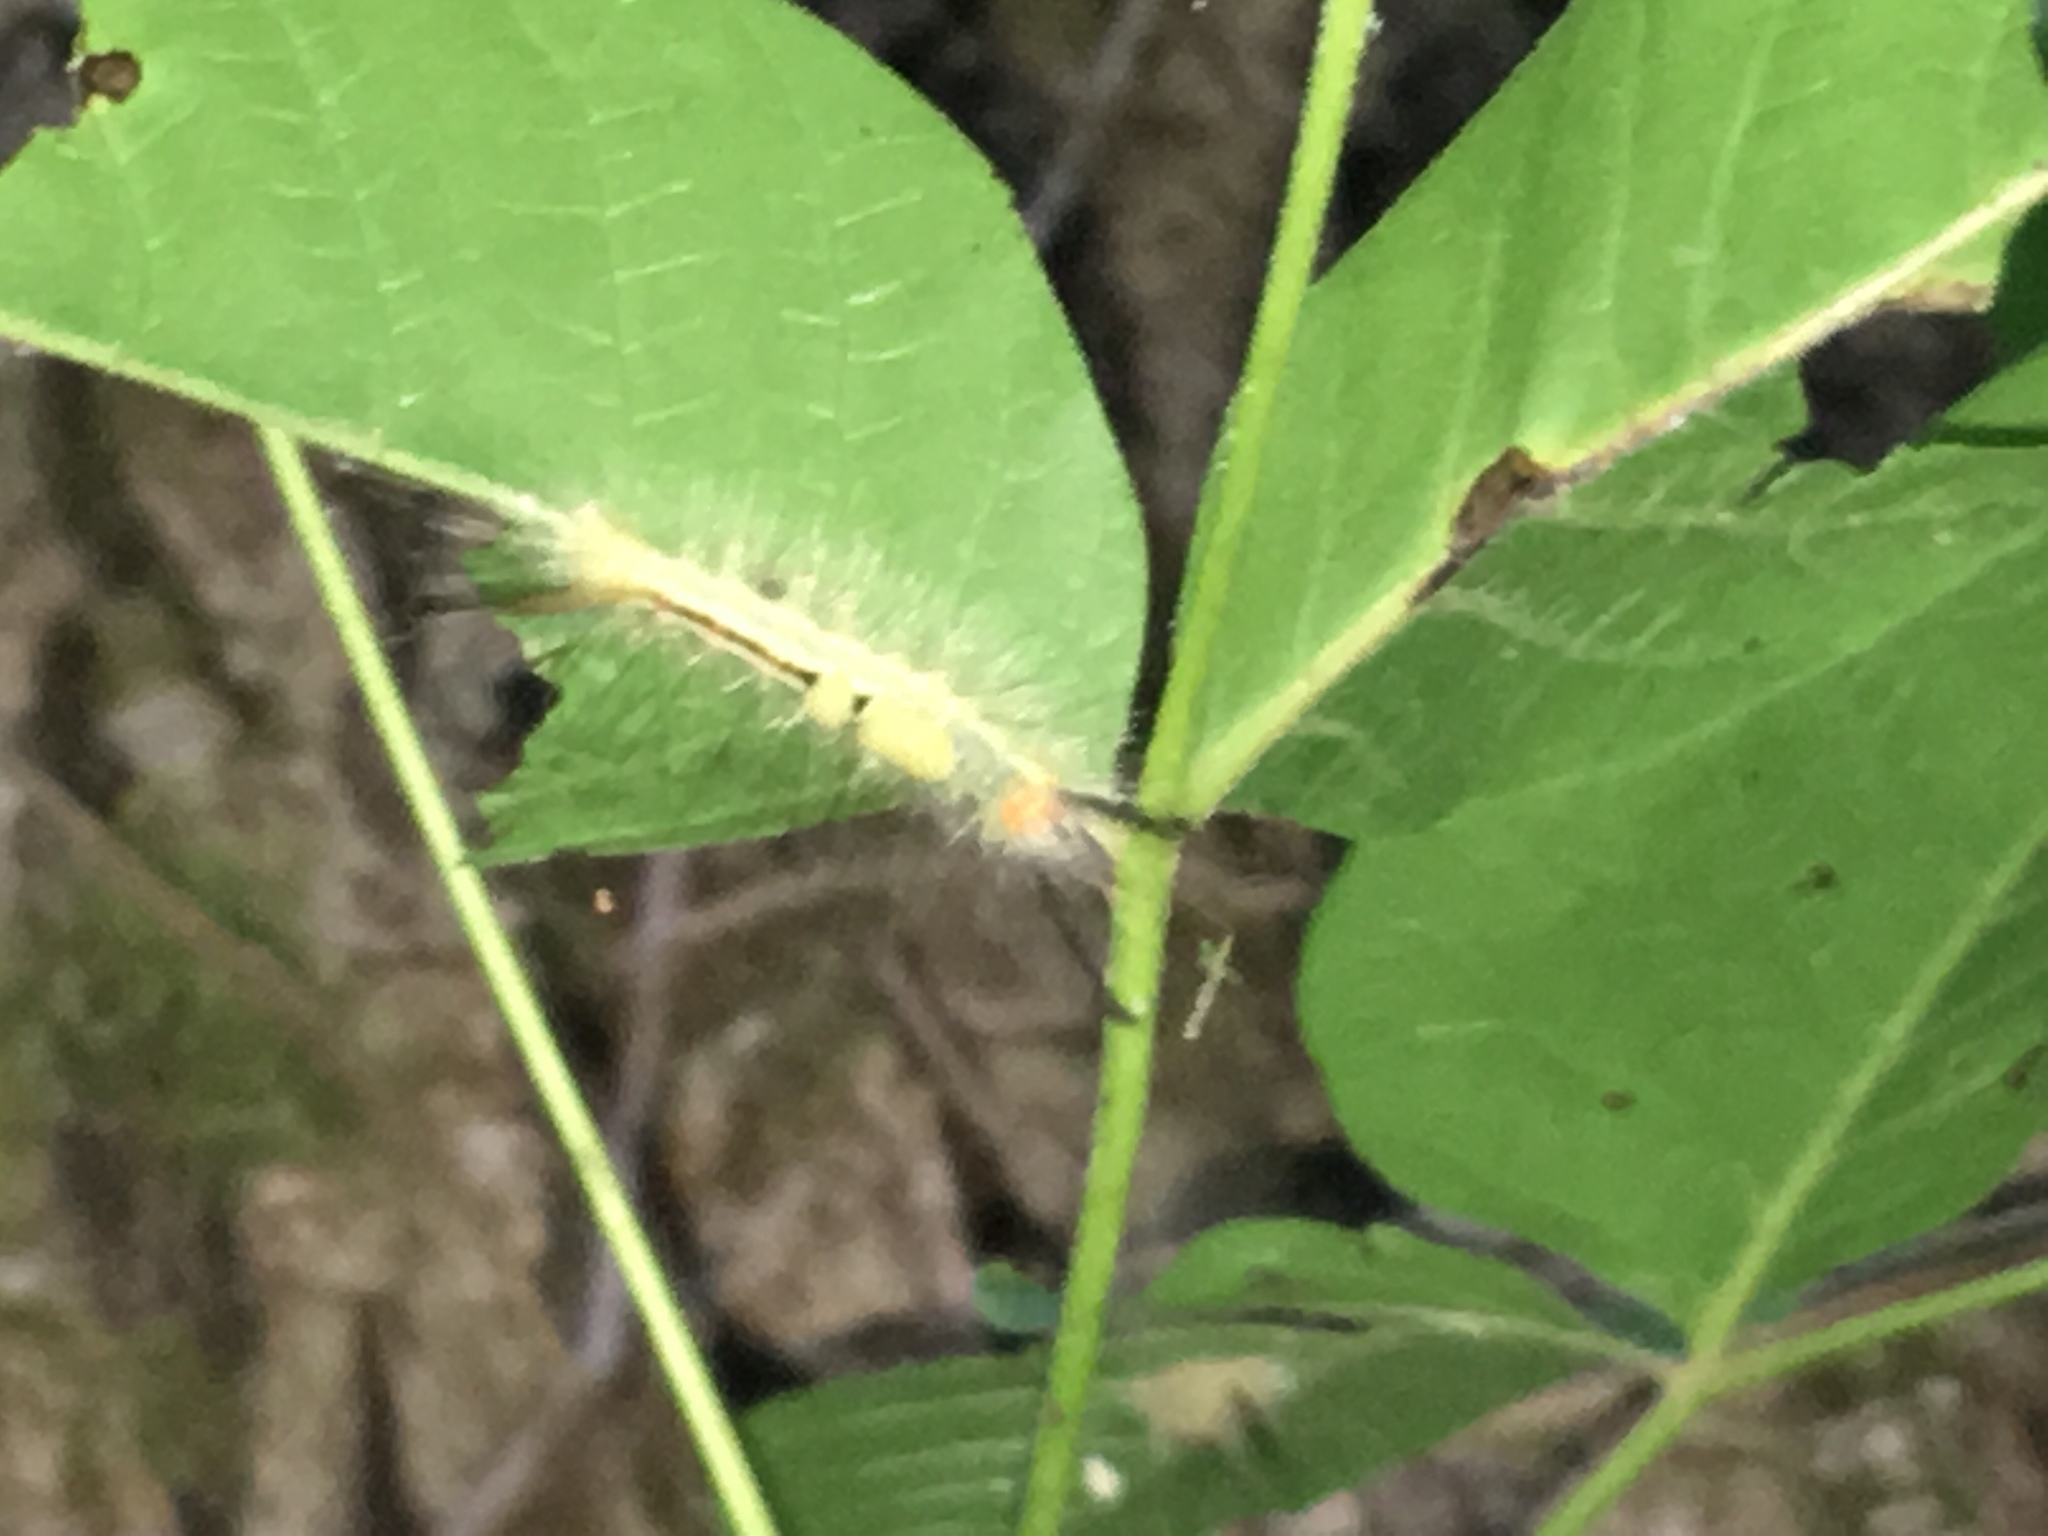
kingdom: Animalia
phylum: Arthropoda
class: Insecta
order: Lepidoptera
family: Erebidae
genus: Orgyia
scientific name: Orgyia leucostigma
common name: White-marked tussock moth
